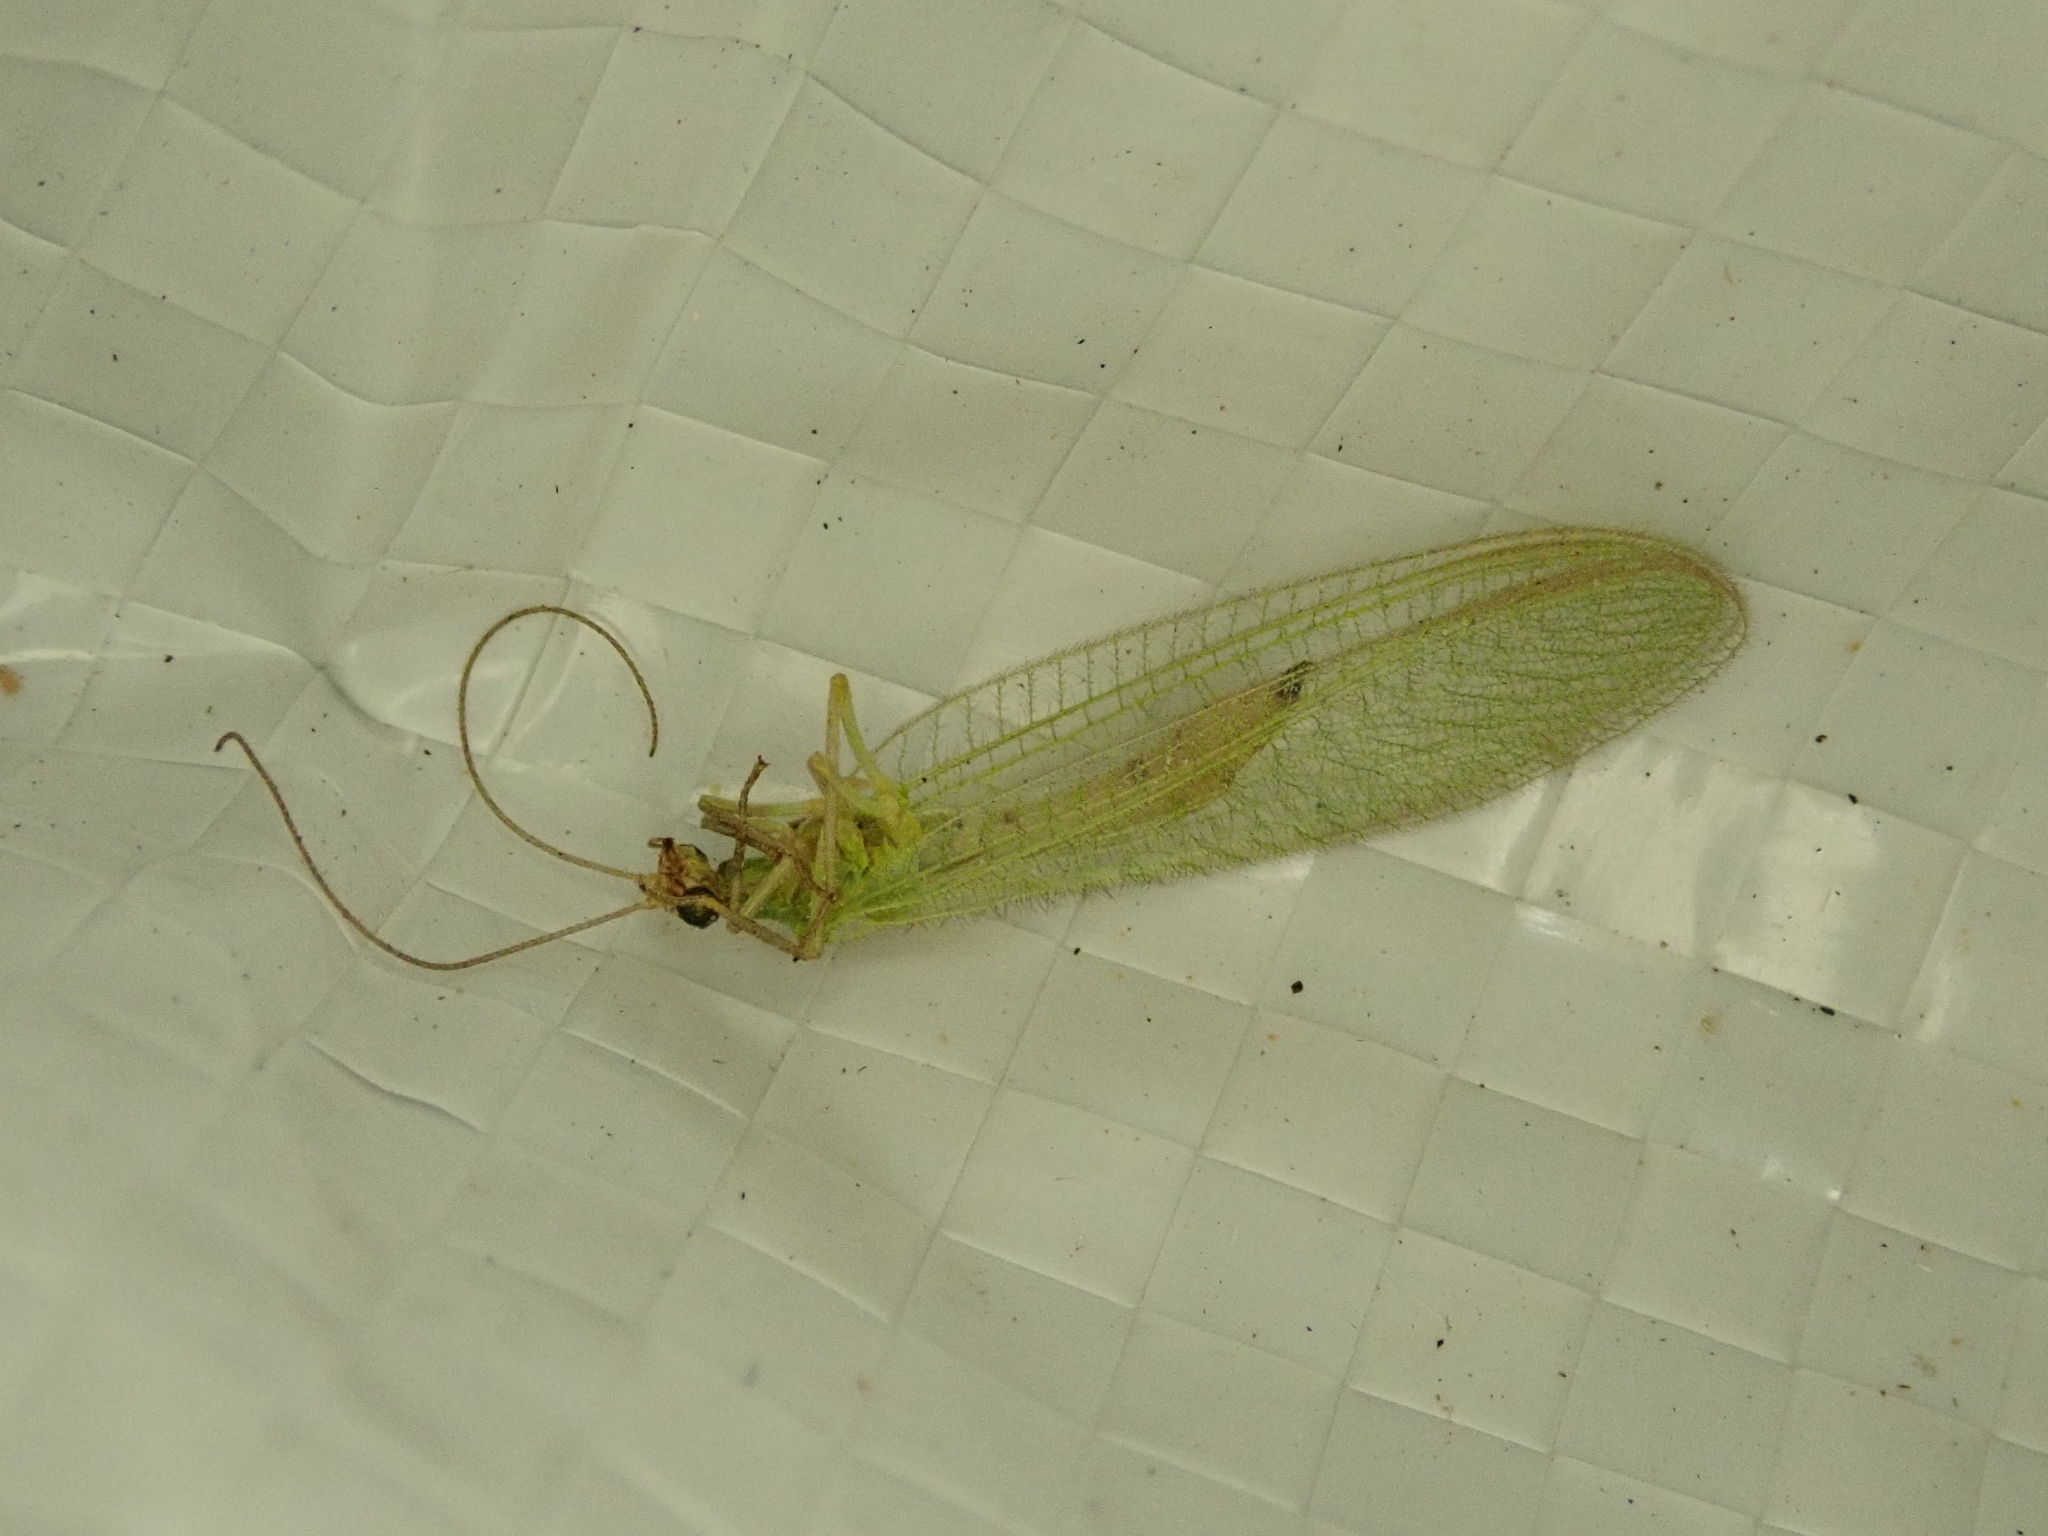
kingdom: Animalia
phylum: Arthropoda
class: Insecta
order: Neuroptera
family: Chrysopidae
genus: Chrysoperla
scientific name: Chrysoperla
